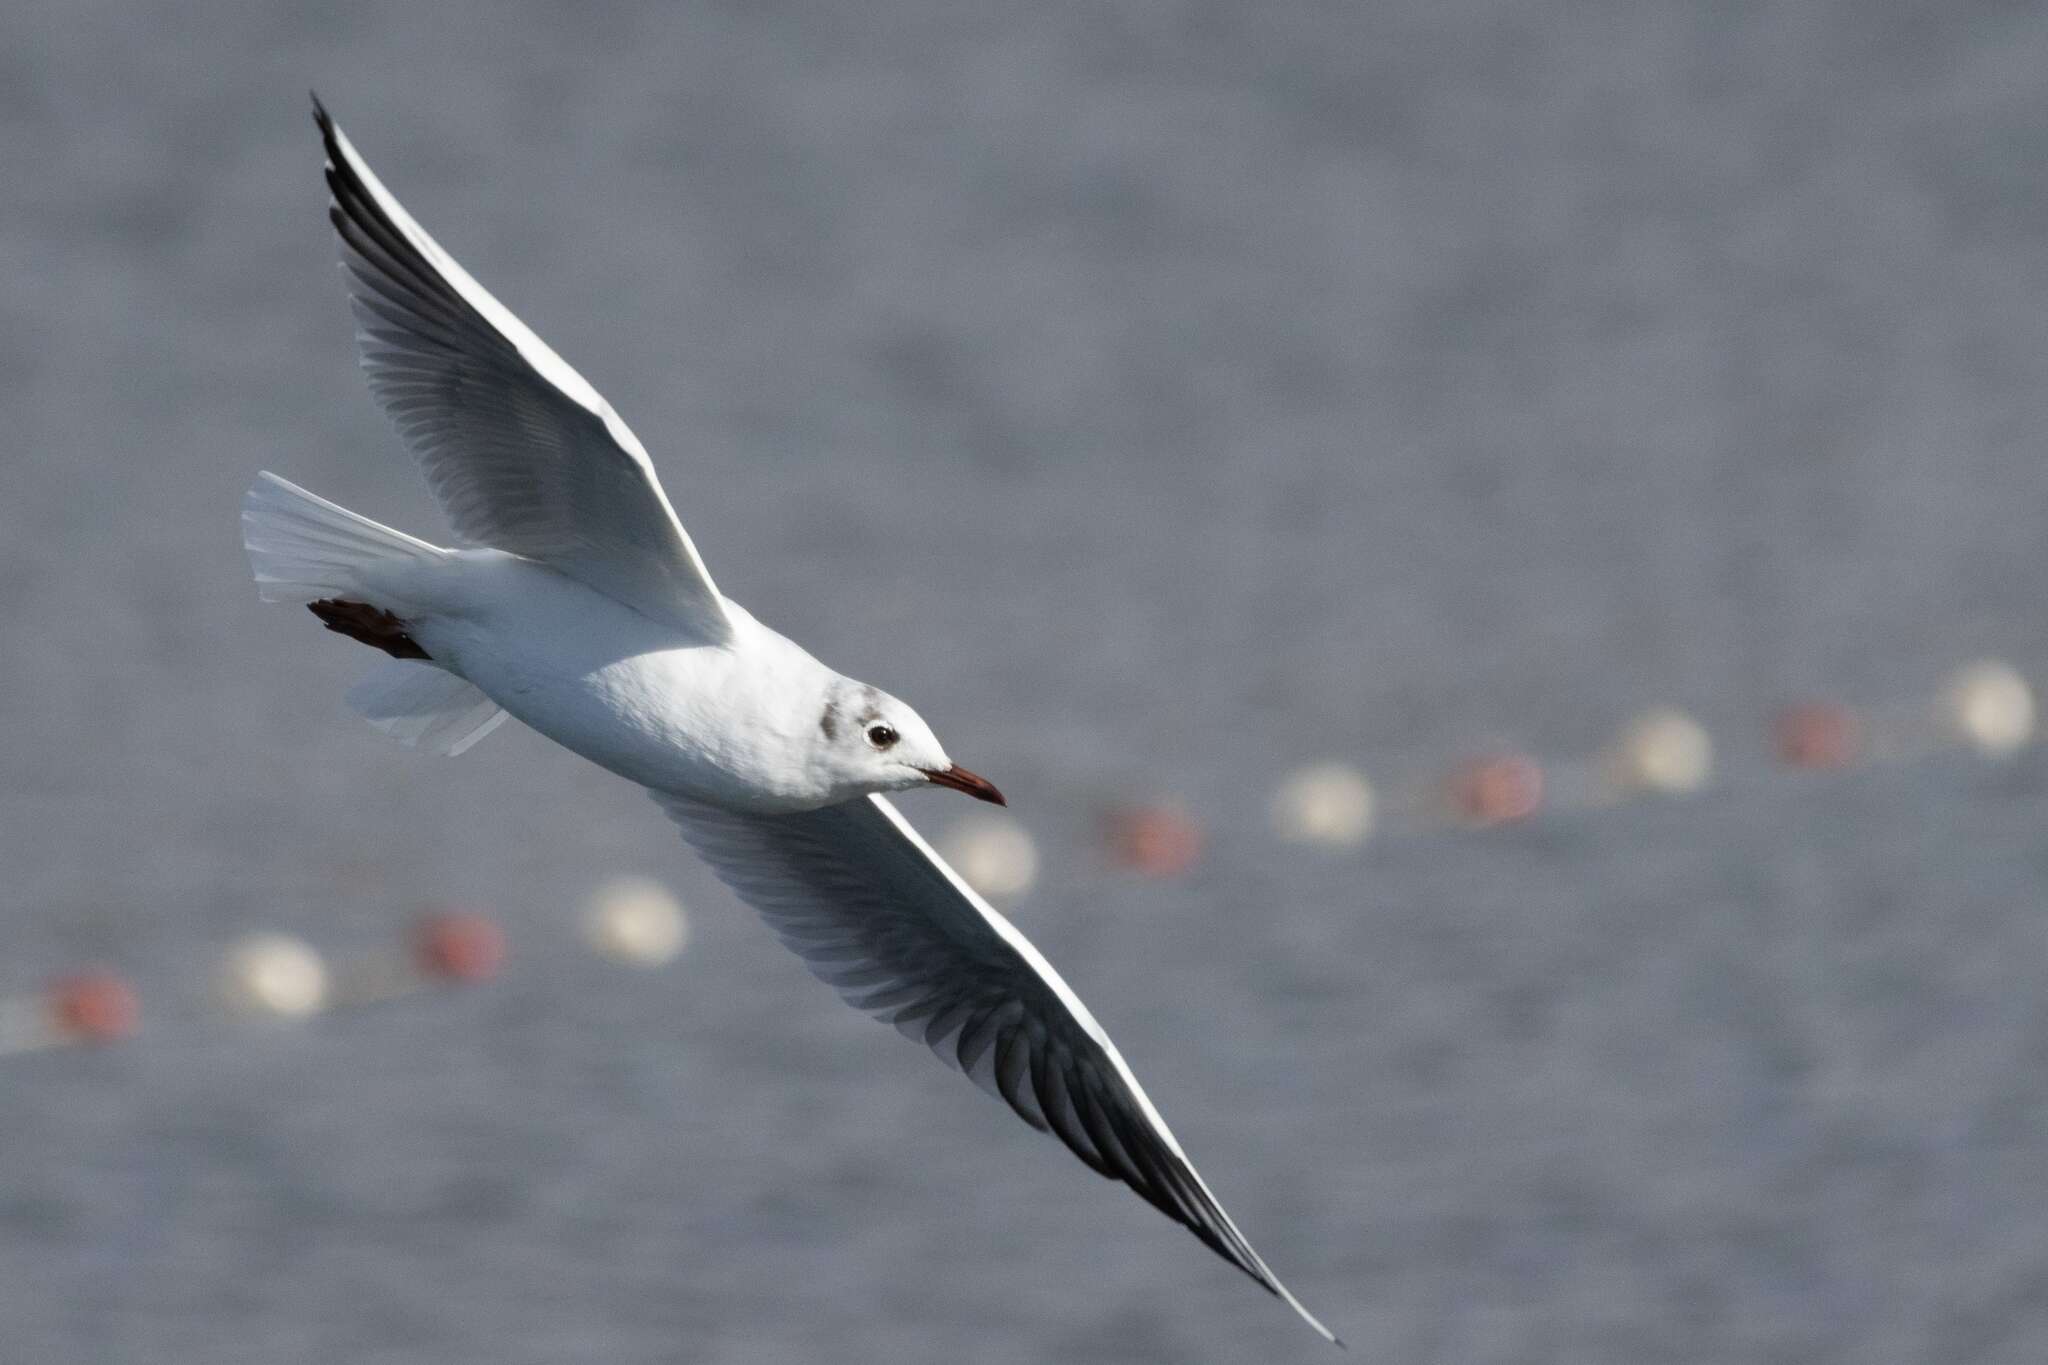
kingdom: Animalia
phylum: Chordata
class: Aves
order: Charadriiformes
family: Laridae
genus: Chroicocephalus
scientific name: Chroicocephalus ridibundus
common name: Black-headed gull
